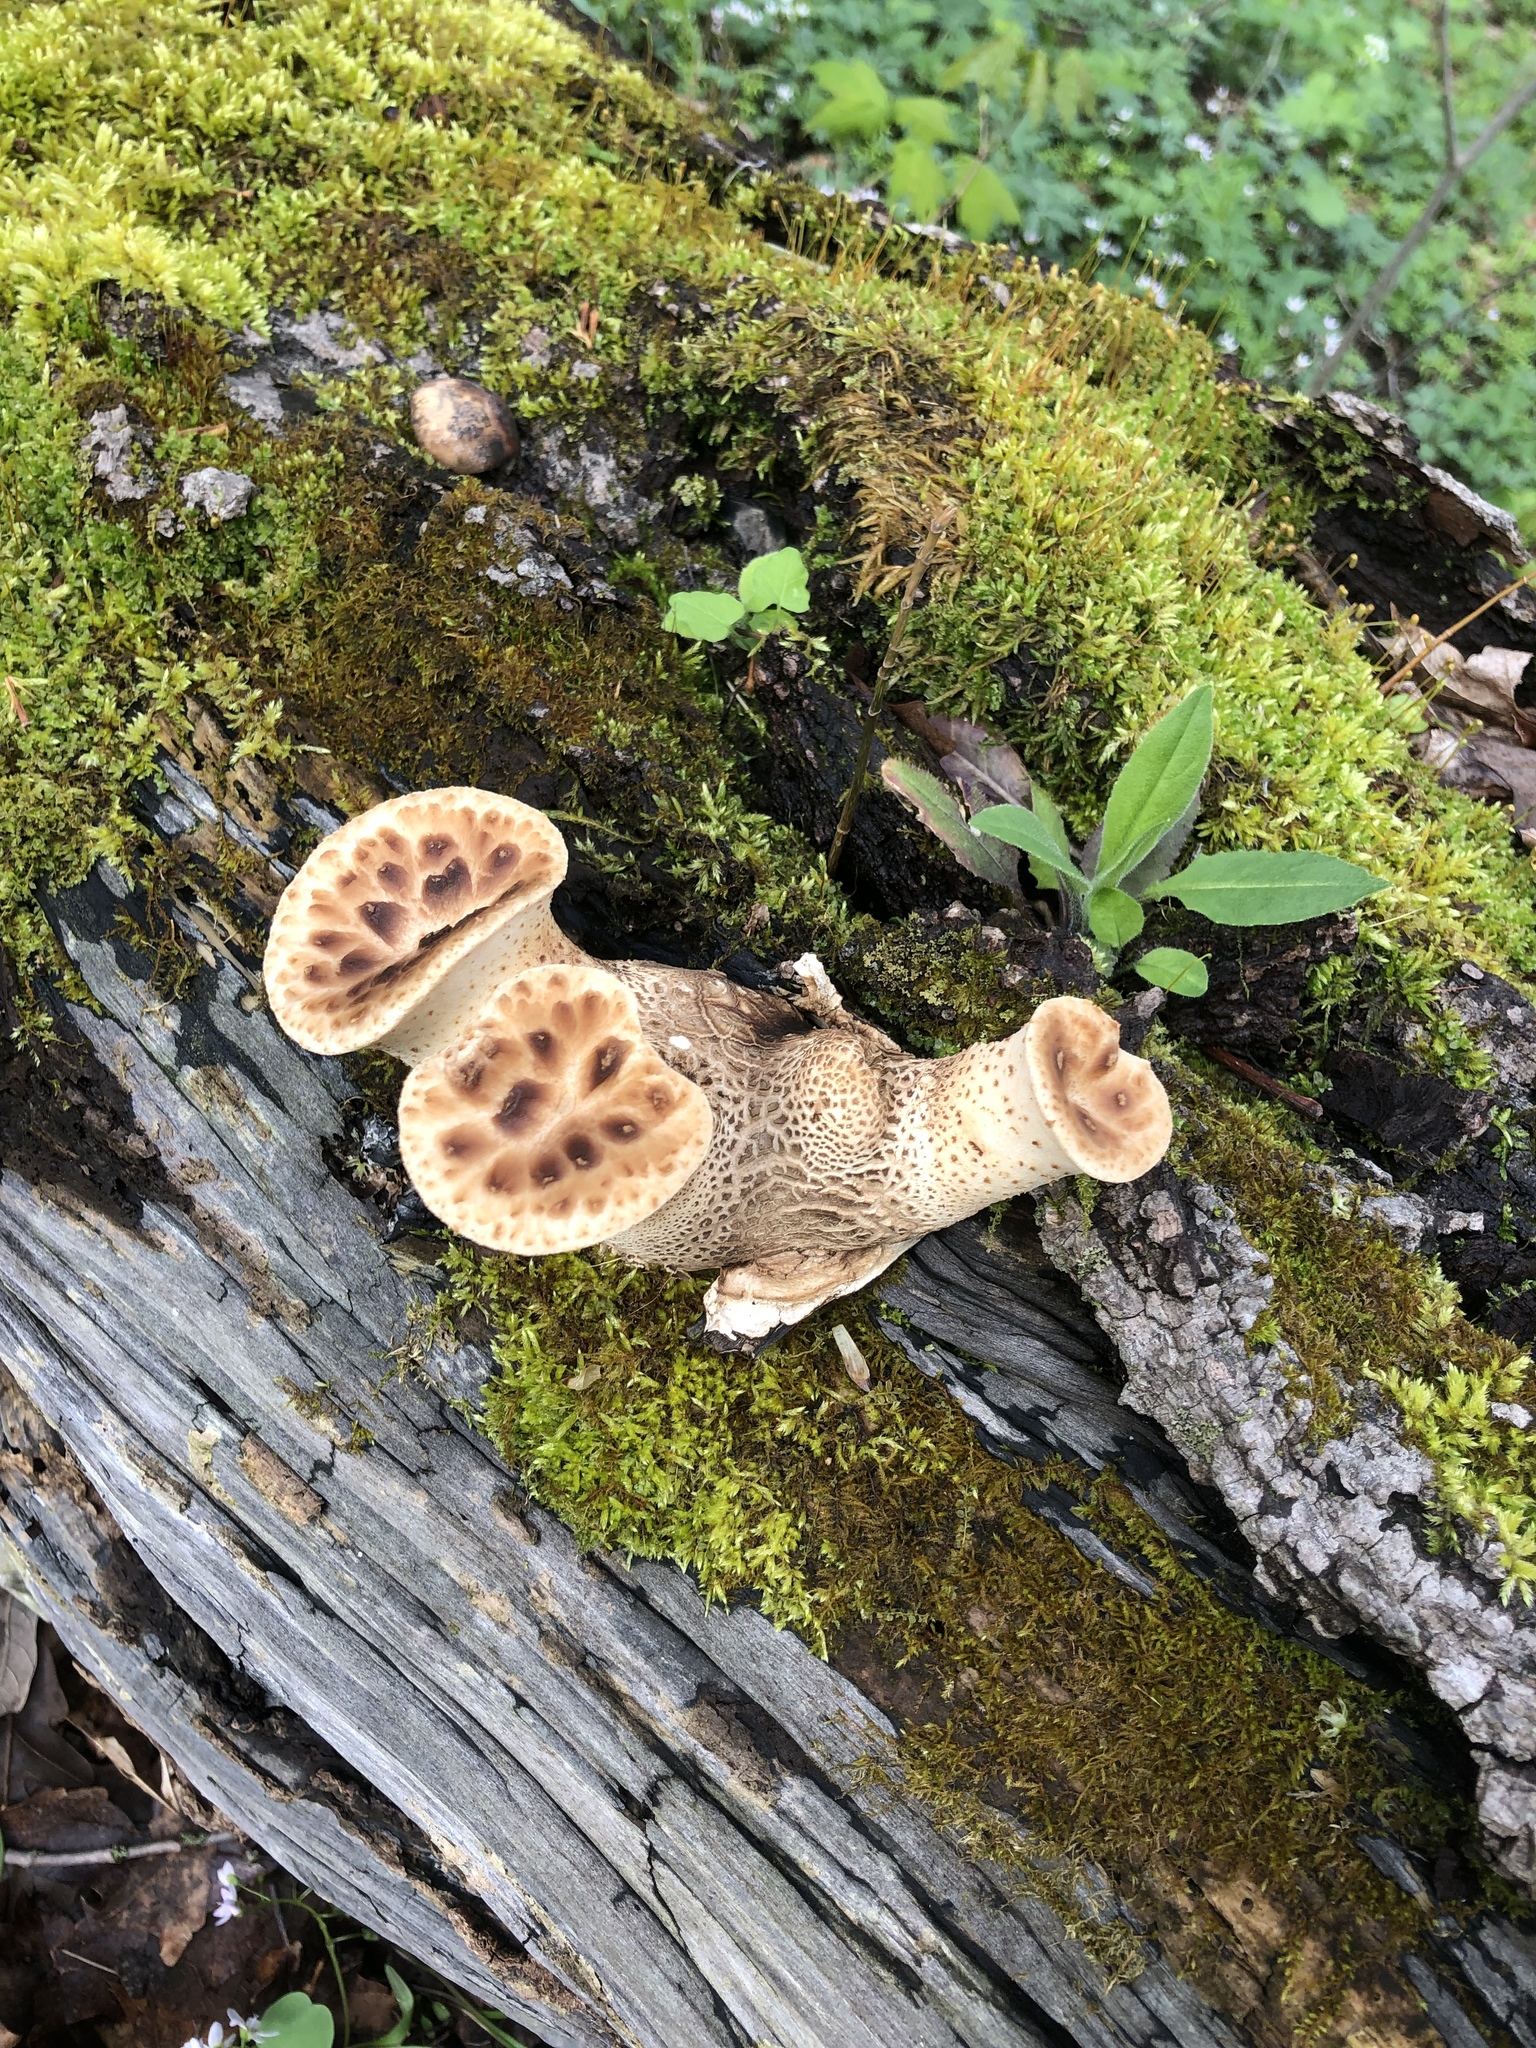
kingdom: Fungi
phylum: Basidiomycota
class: Agaricomycetes
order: Polyporales
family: Polyporaceae
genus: Cerioporus
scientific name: Cerioporus squamosus
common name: Dryad's saddle
